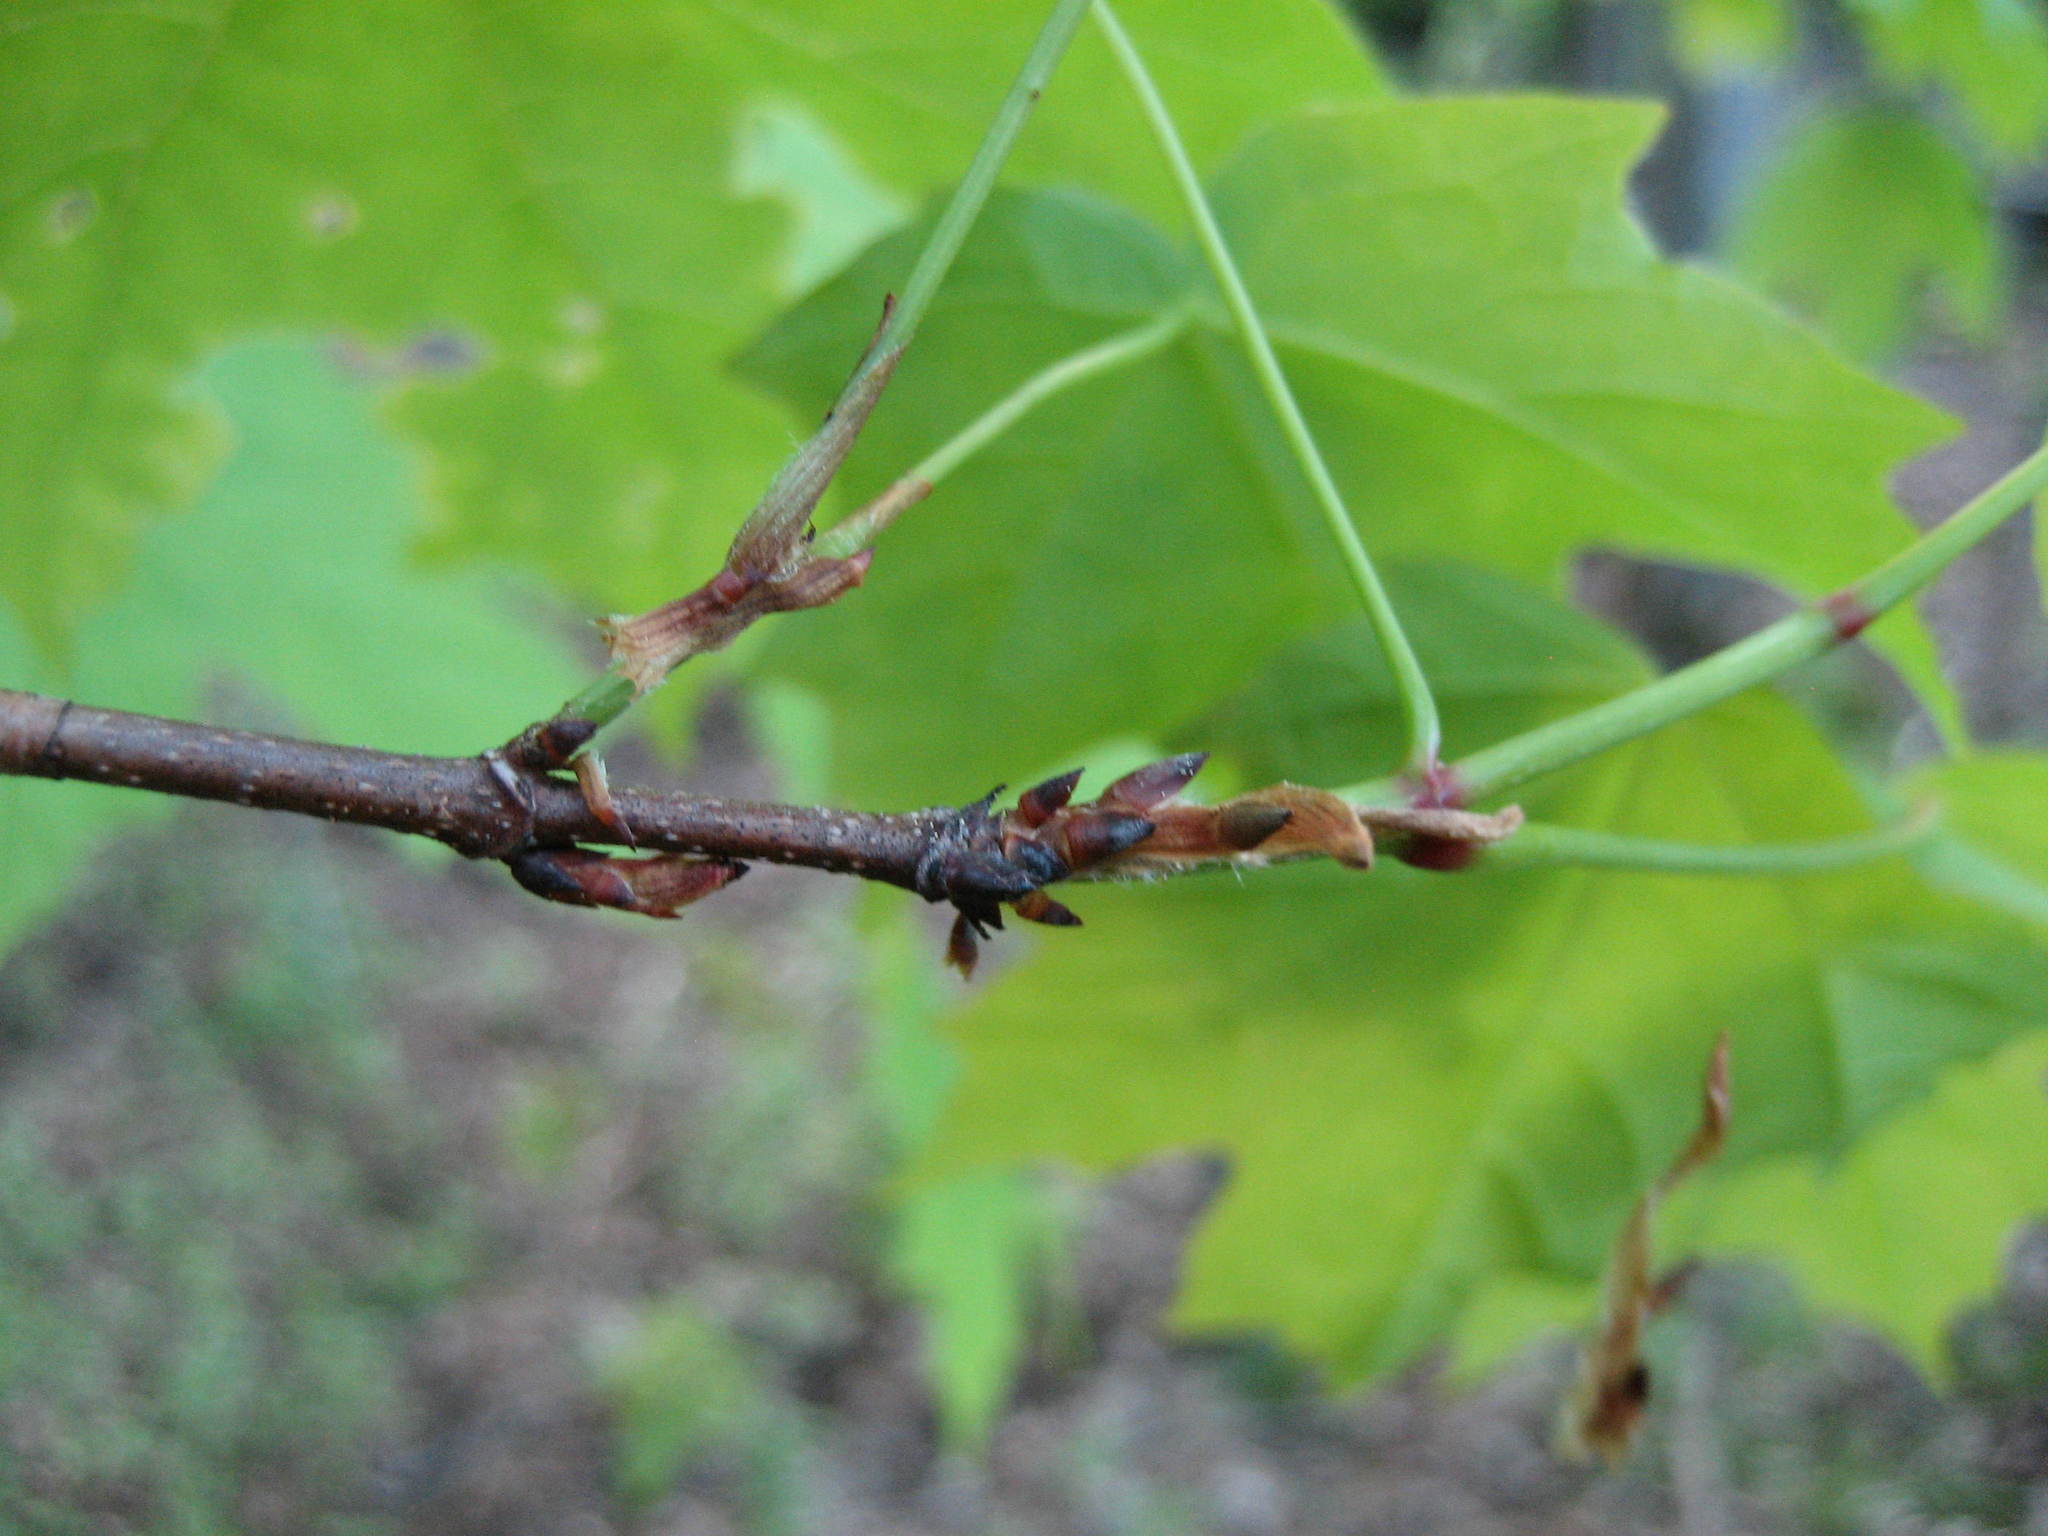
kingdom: Plantae
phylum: Tracheophyta
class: Magnoliopsida
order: Sapindales
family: Sapindaceae
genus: Acer
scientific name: Acer saccharum
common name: Sugar maple
